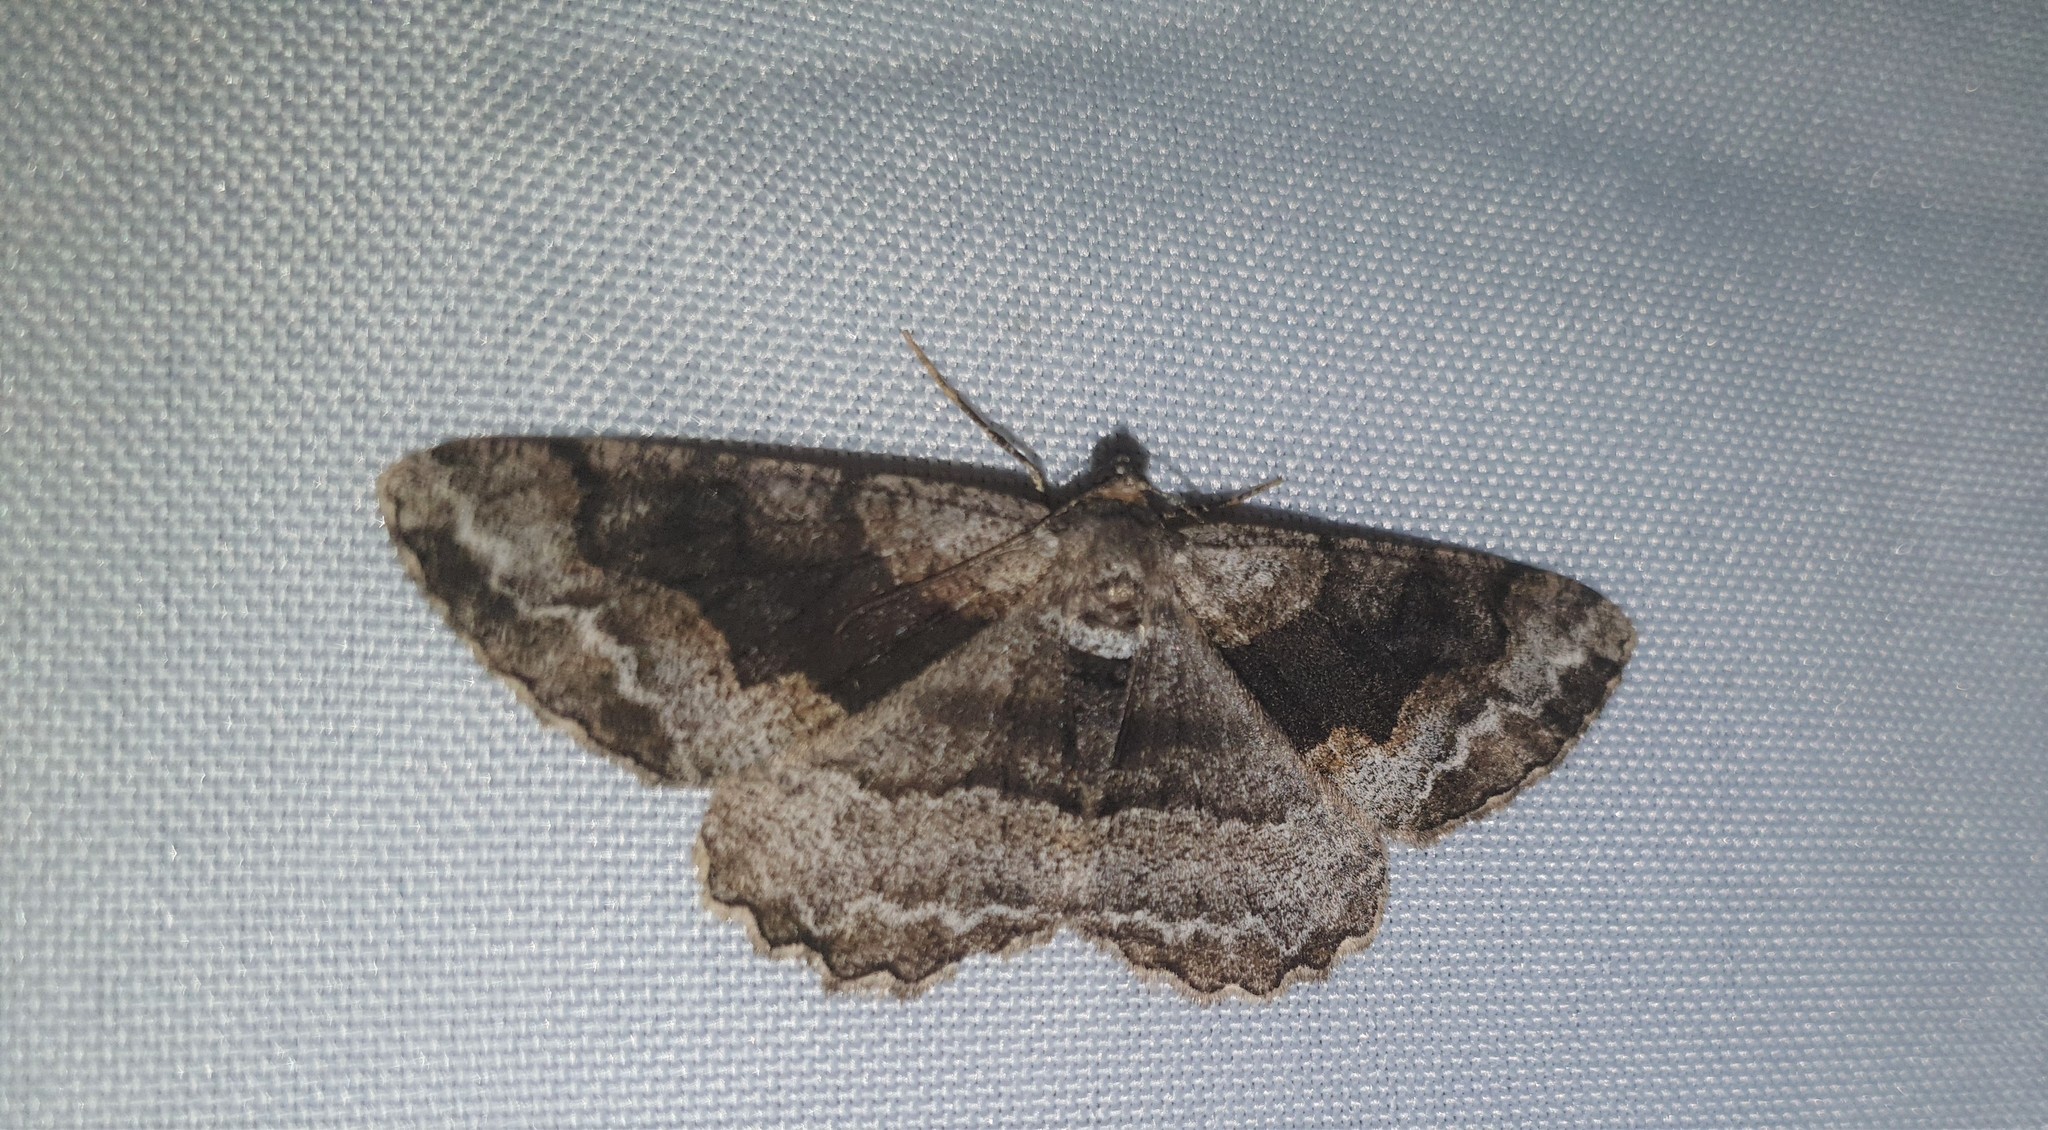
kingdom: Animalia
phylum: Arthropoda
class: Insecta
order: Lepidoptera
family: Geometridae
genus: Alcis
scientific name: Alcis repandata
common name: Mottled beauty
